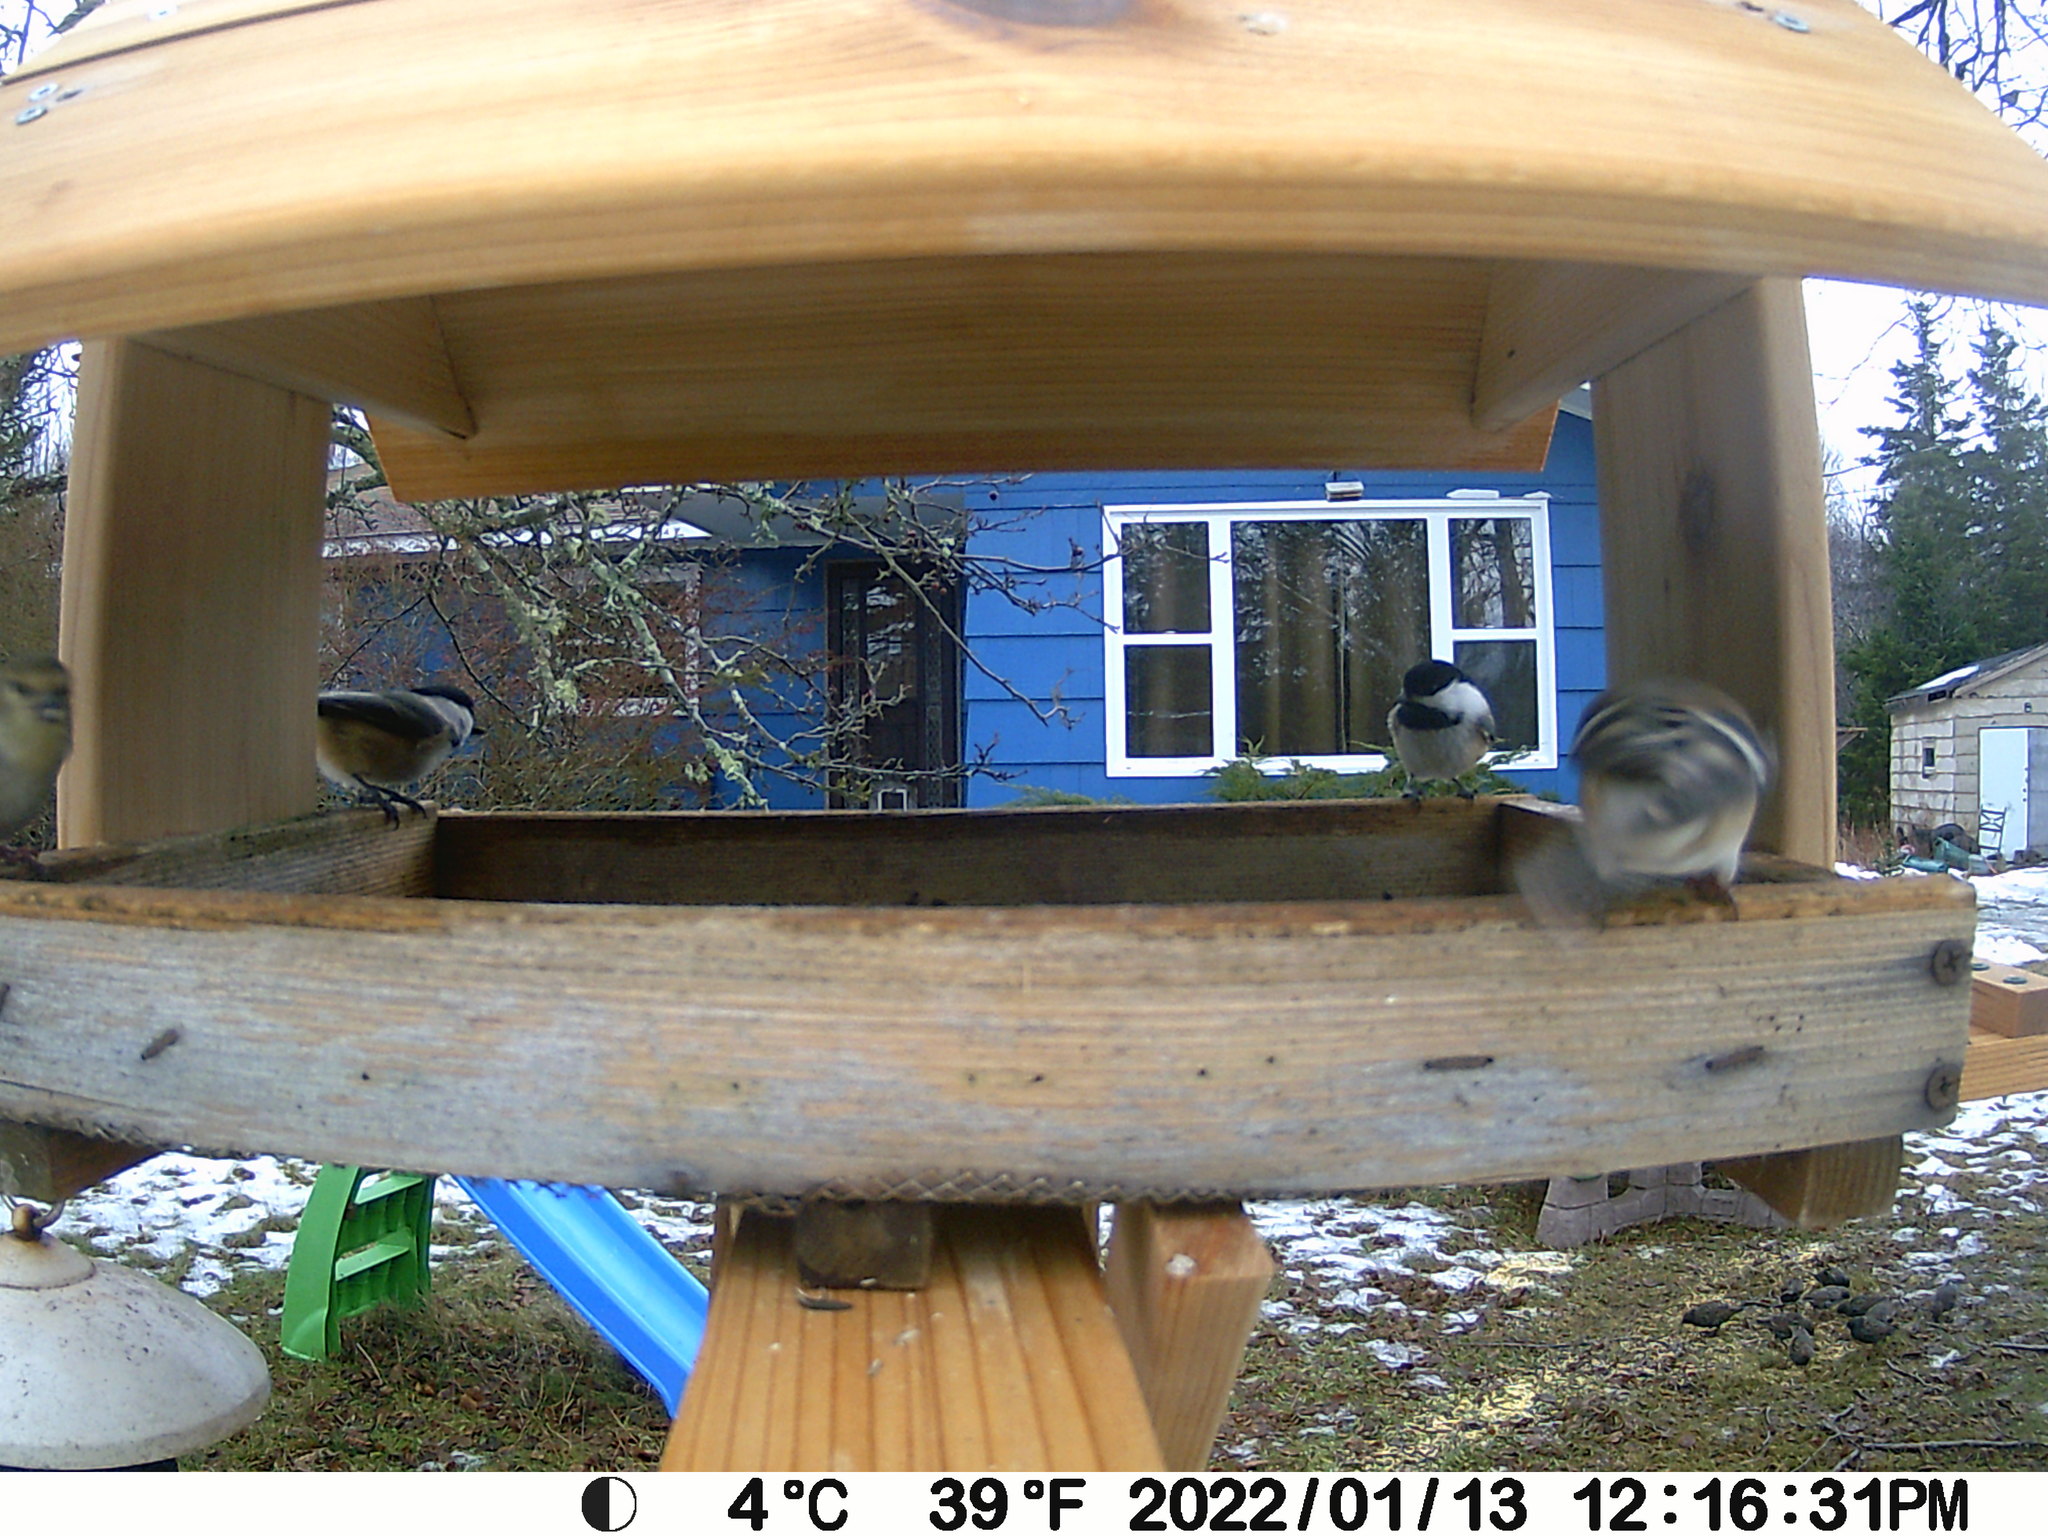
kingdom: Animalia
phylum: Chordata
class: Aves
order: Passeriformes
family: Sturnidae
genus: Sturnus
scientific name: Sturnus vulgaris
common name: Common starling
